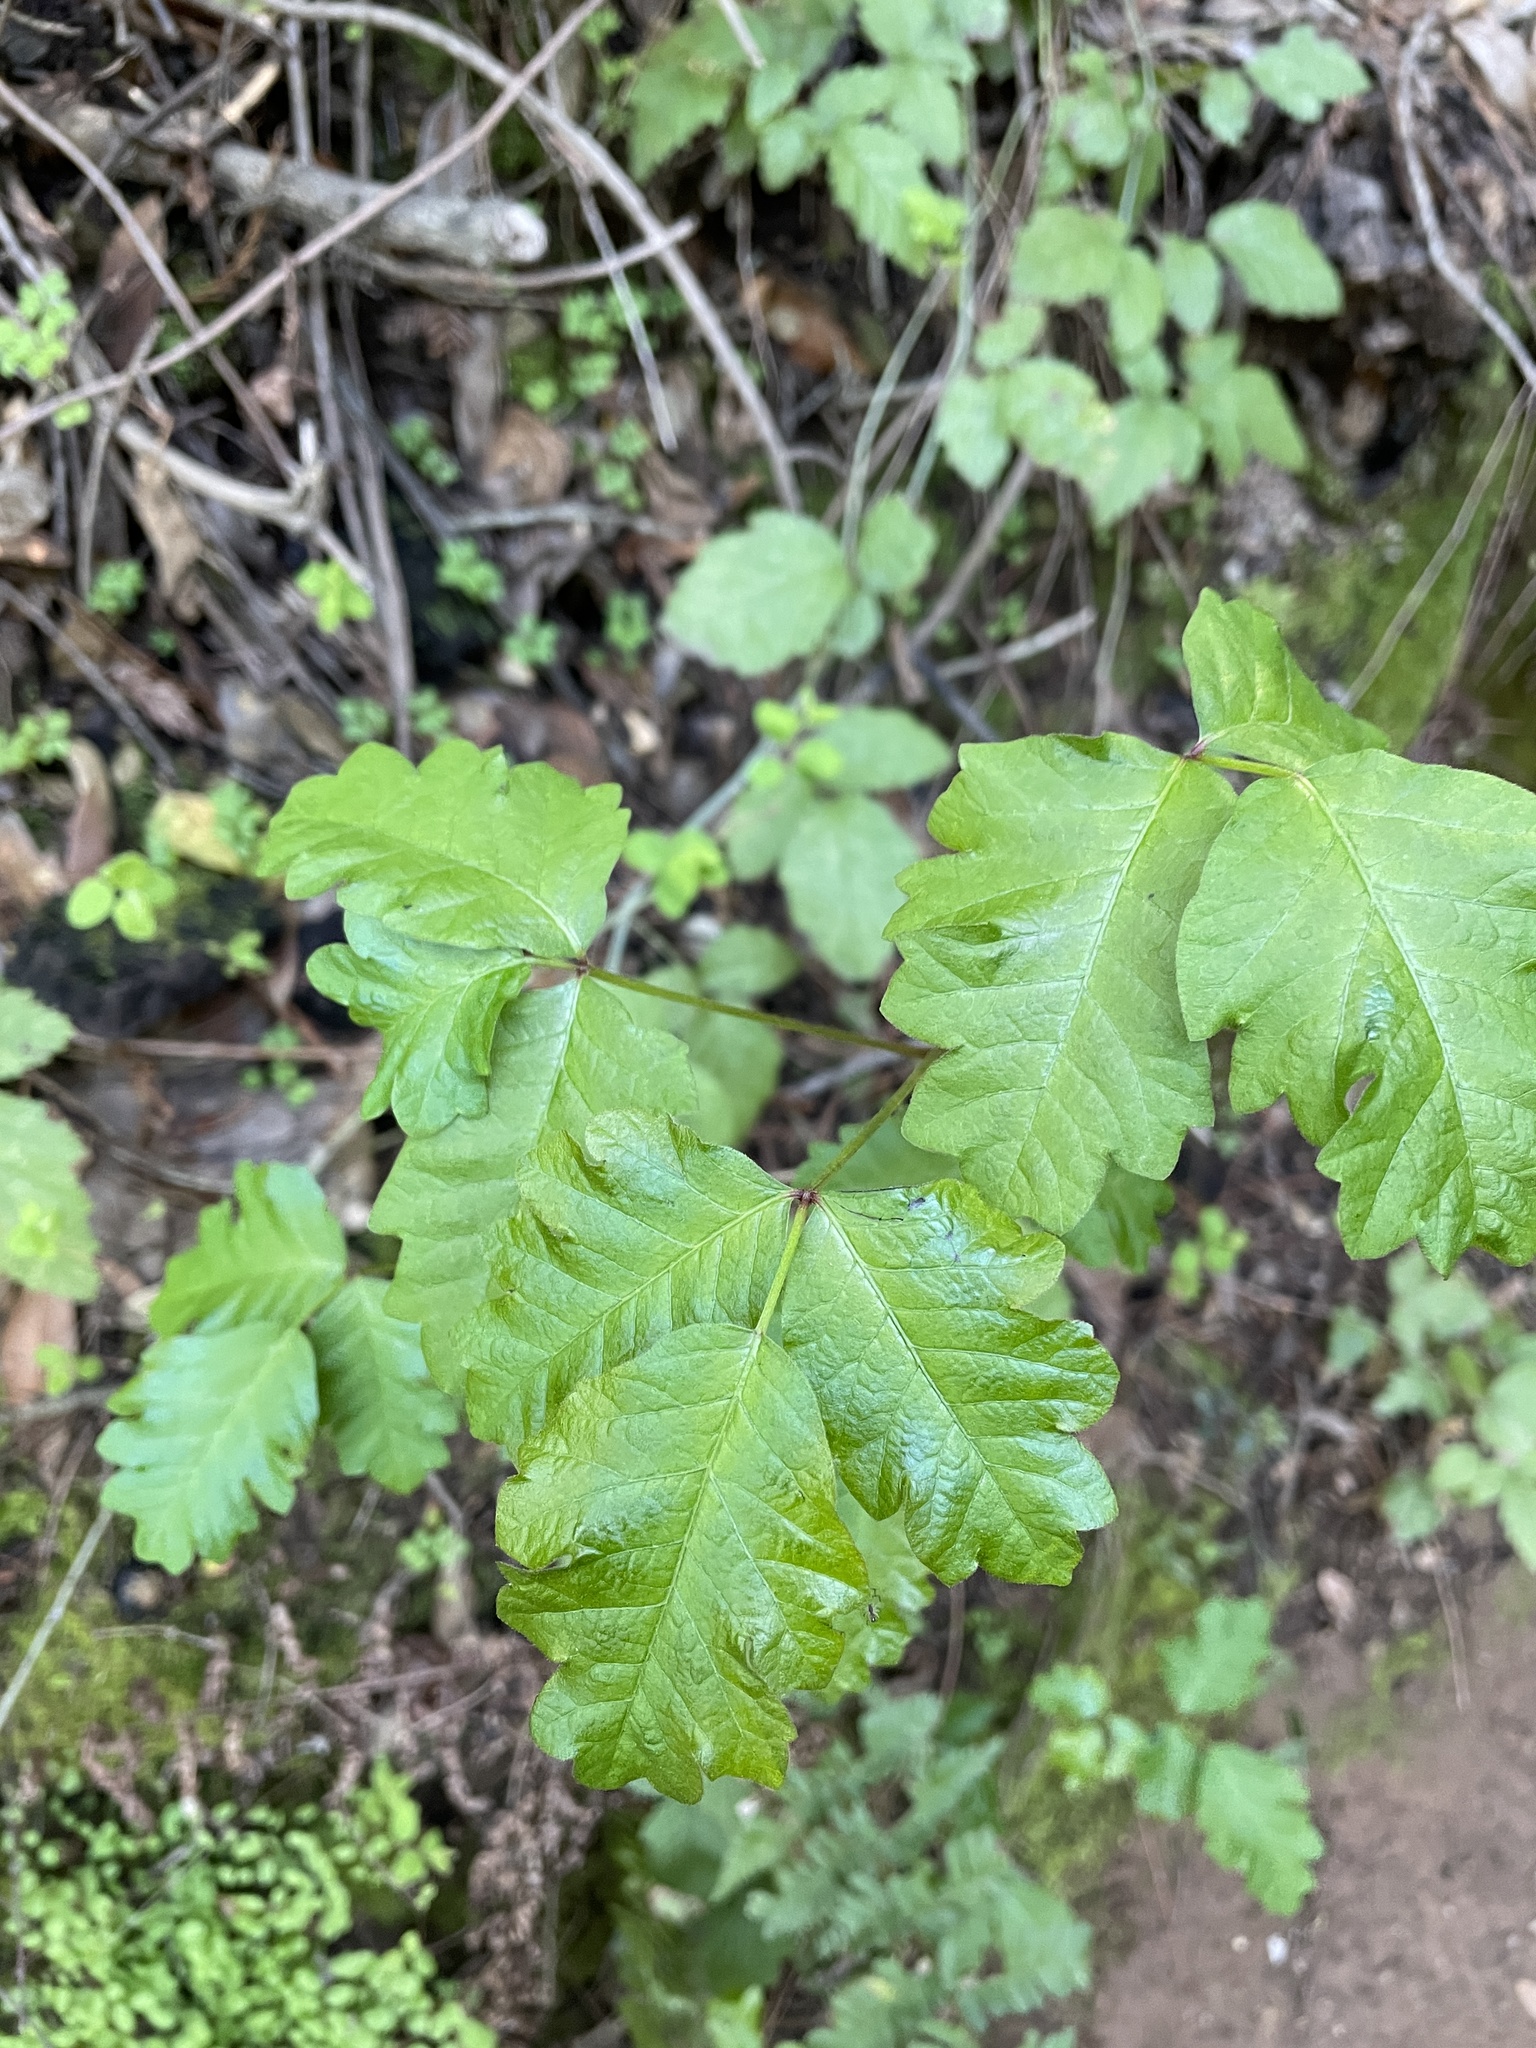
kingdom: Plantae
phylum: Tracheophyta
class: Magnoliopsida
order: Sapindales
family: Anacardiaceae
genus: Toxicodendron
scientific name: Toxicodendron diversilobum
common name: Pacific poison-oak
